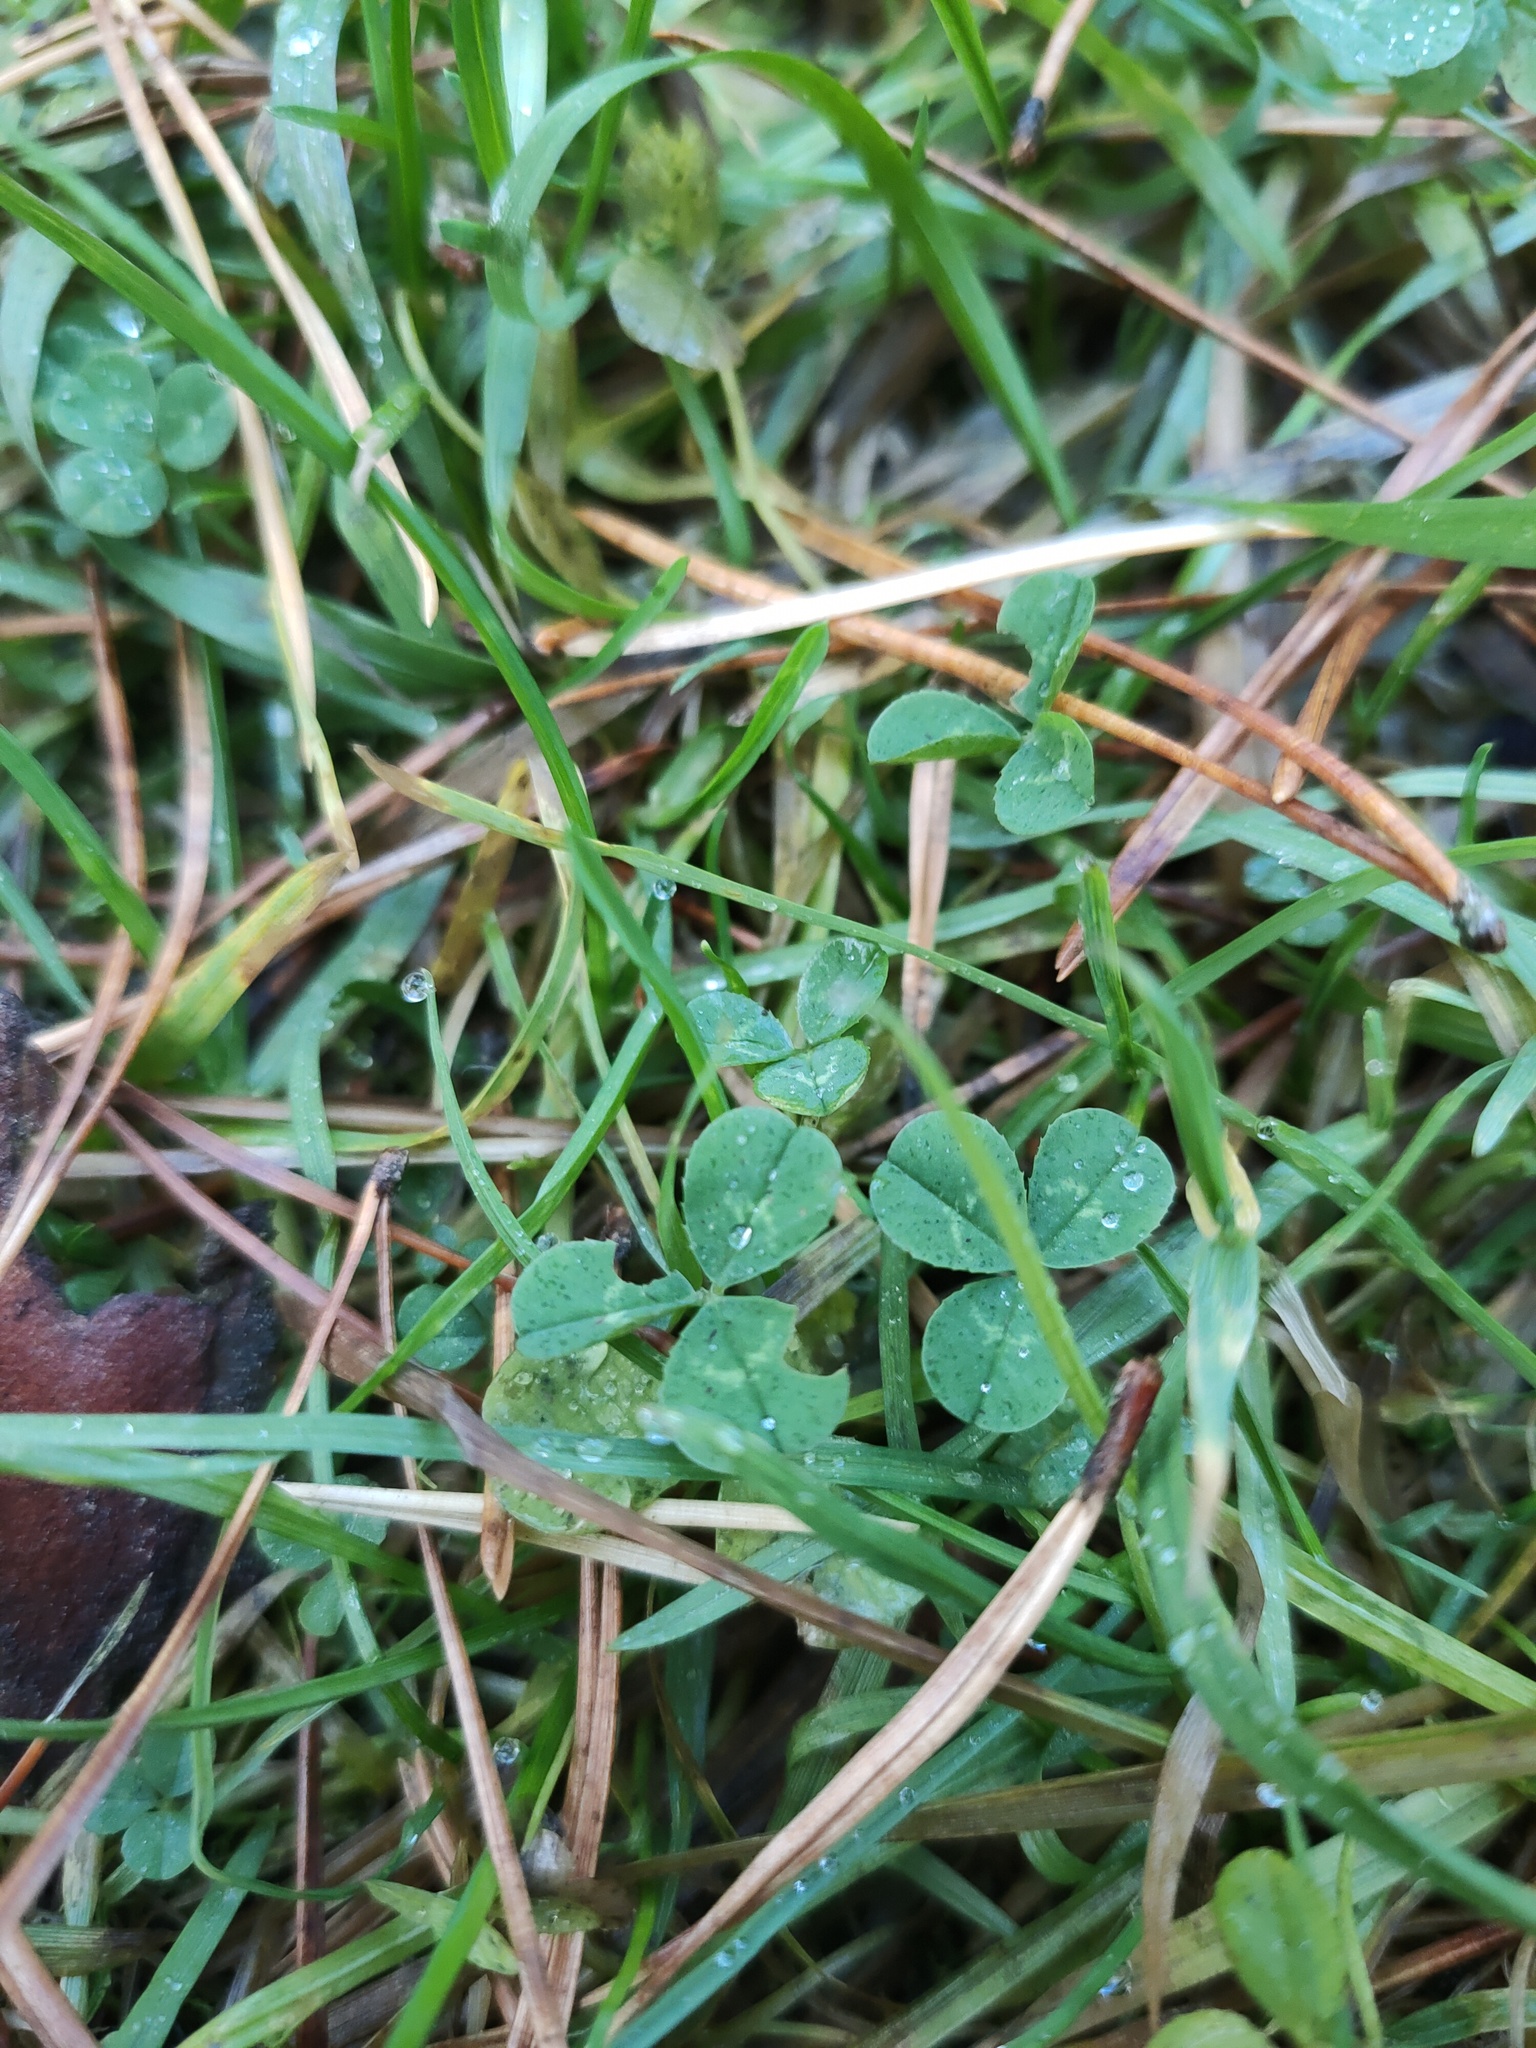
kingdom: Plantae
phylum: Tracheophyta
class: Magnoliopsida
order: Fabales
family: Fabaceae
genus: Trifolium
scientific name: Trifolium repens
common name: White clover
